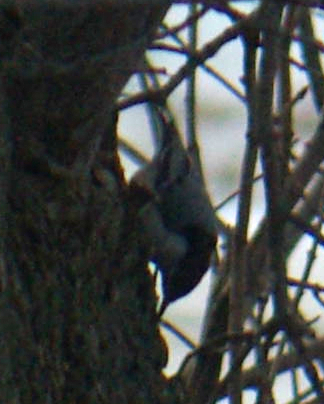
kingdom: Animalia
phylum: Chordata
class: Aves
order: Passeriformes
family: Sittidae
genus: Sitta
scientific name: Sitta carolinensis
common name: White-breasted nuthatch
